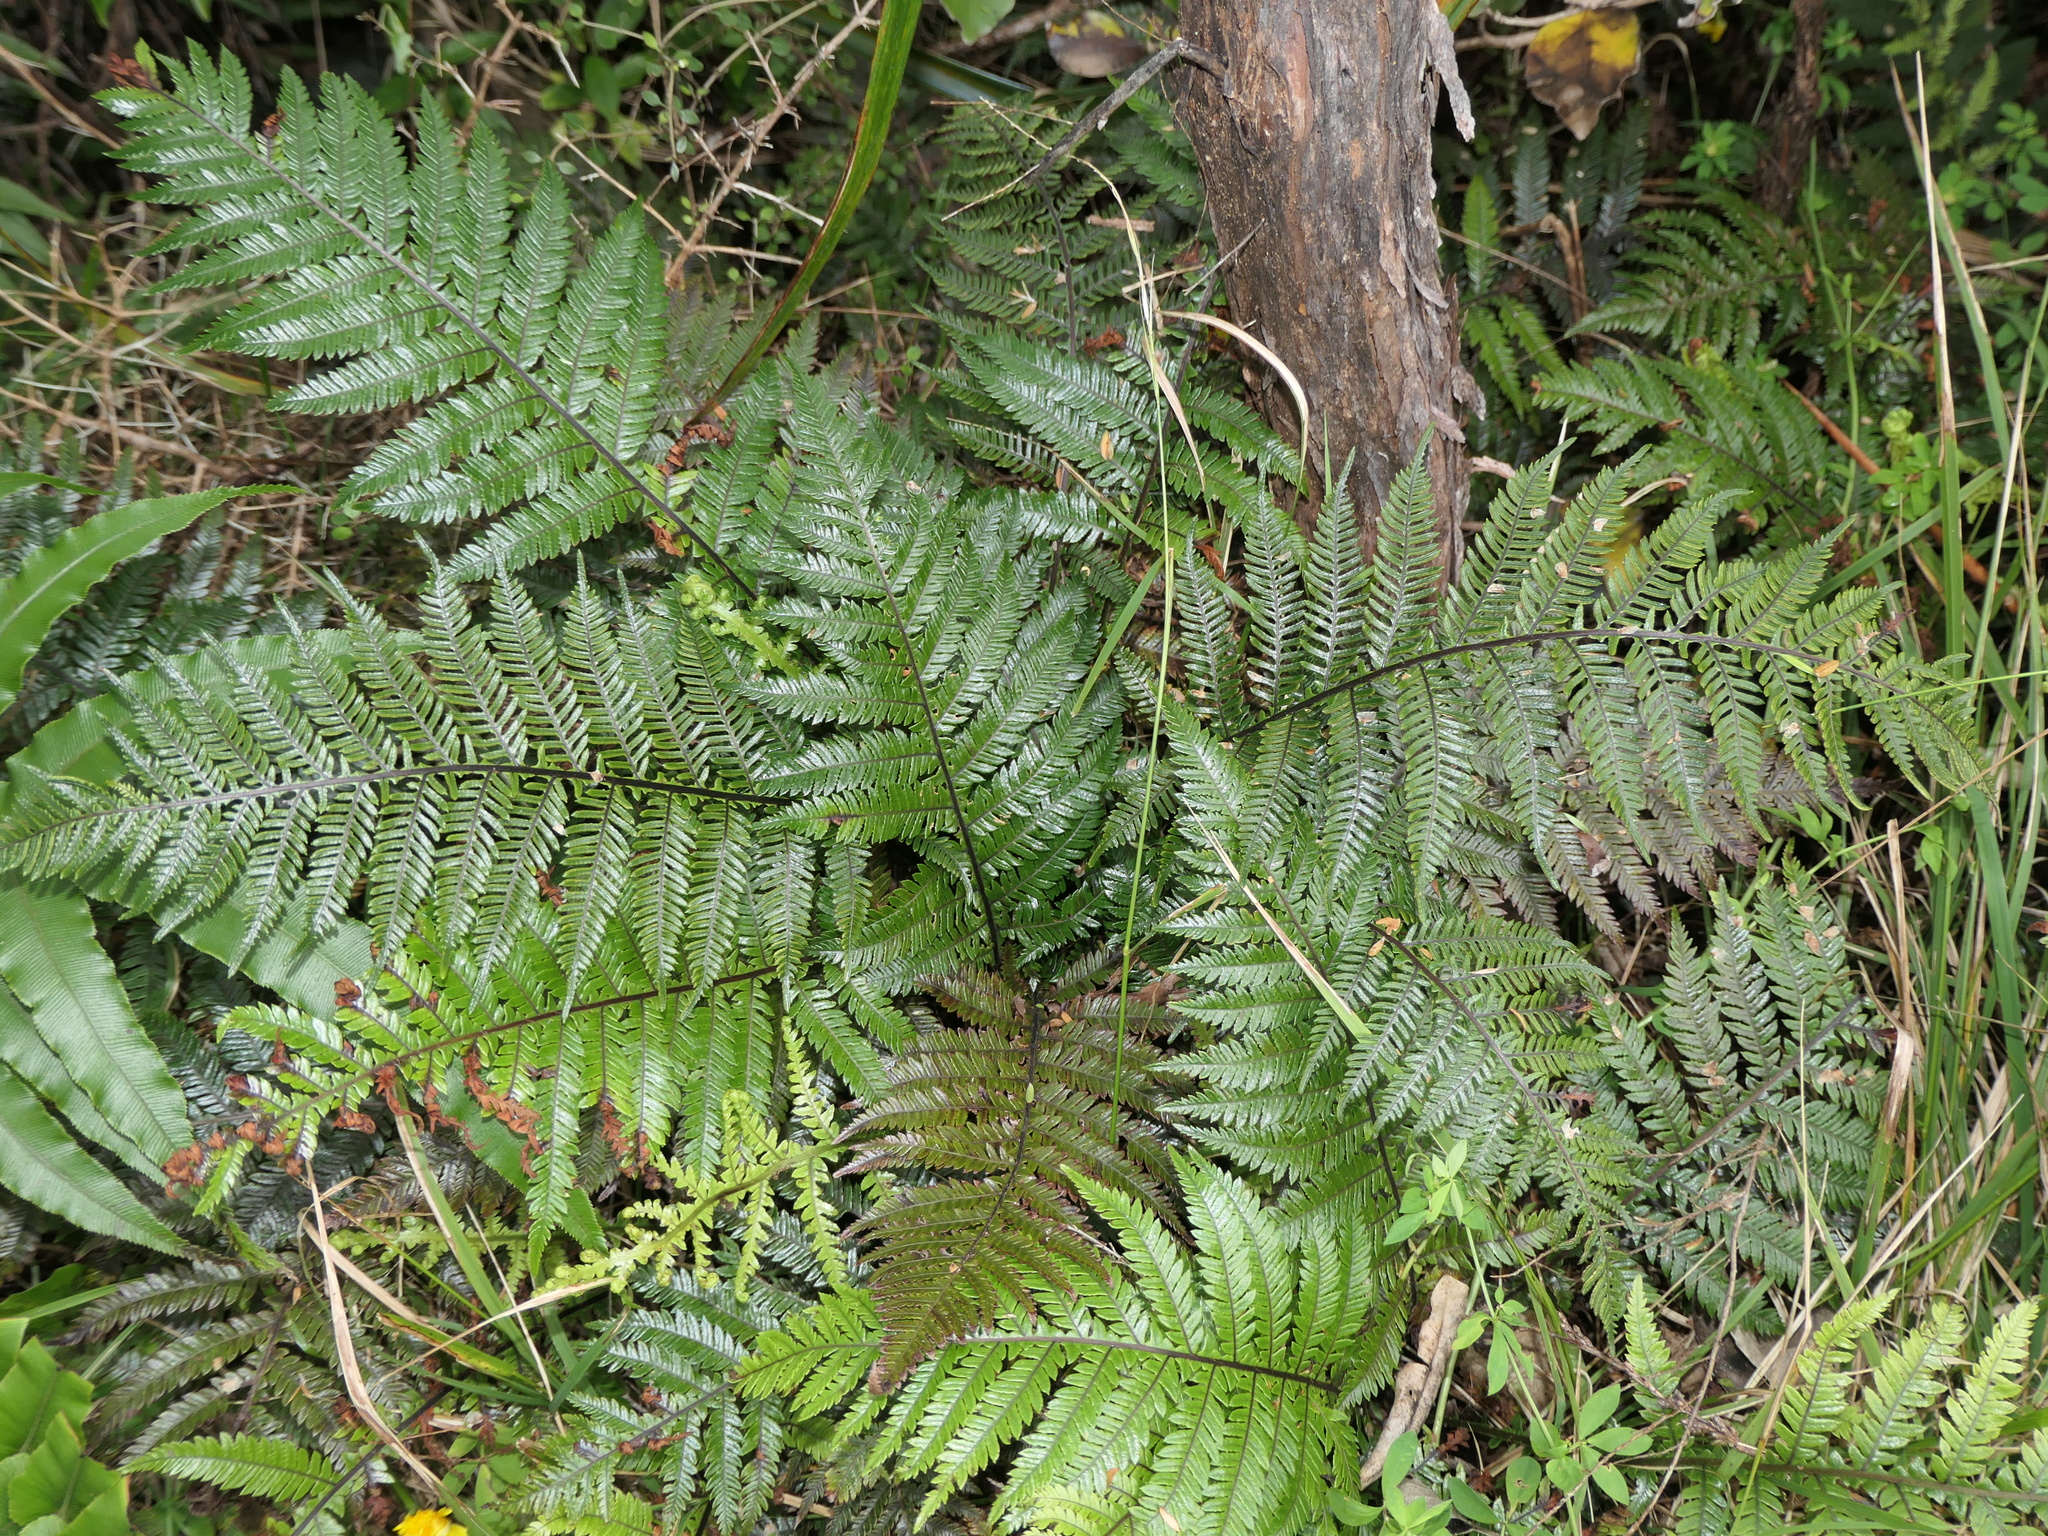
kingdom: Plantae
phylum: Tracheophyta
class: Polypodiopsida
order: Polypodiales
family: Blechnaceae
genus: Diploblechnum
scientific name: Diploblechnum fraseri
